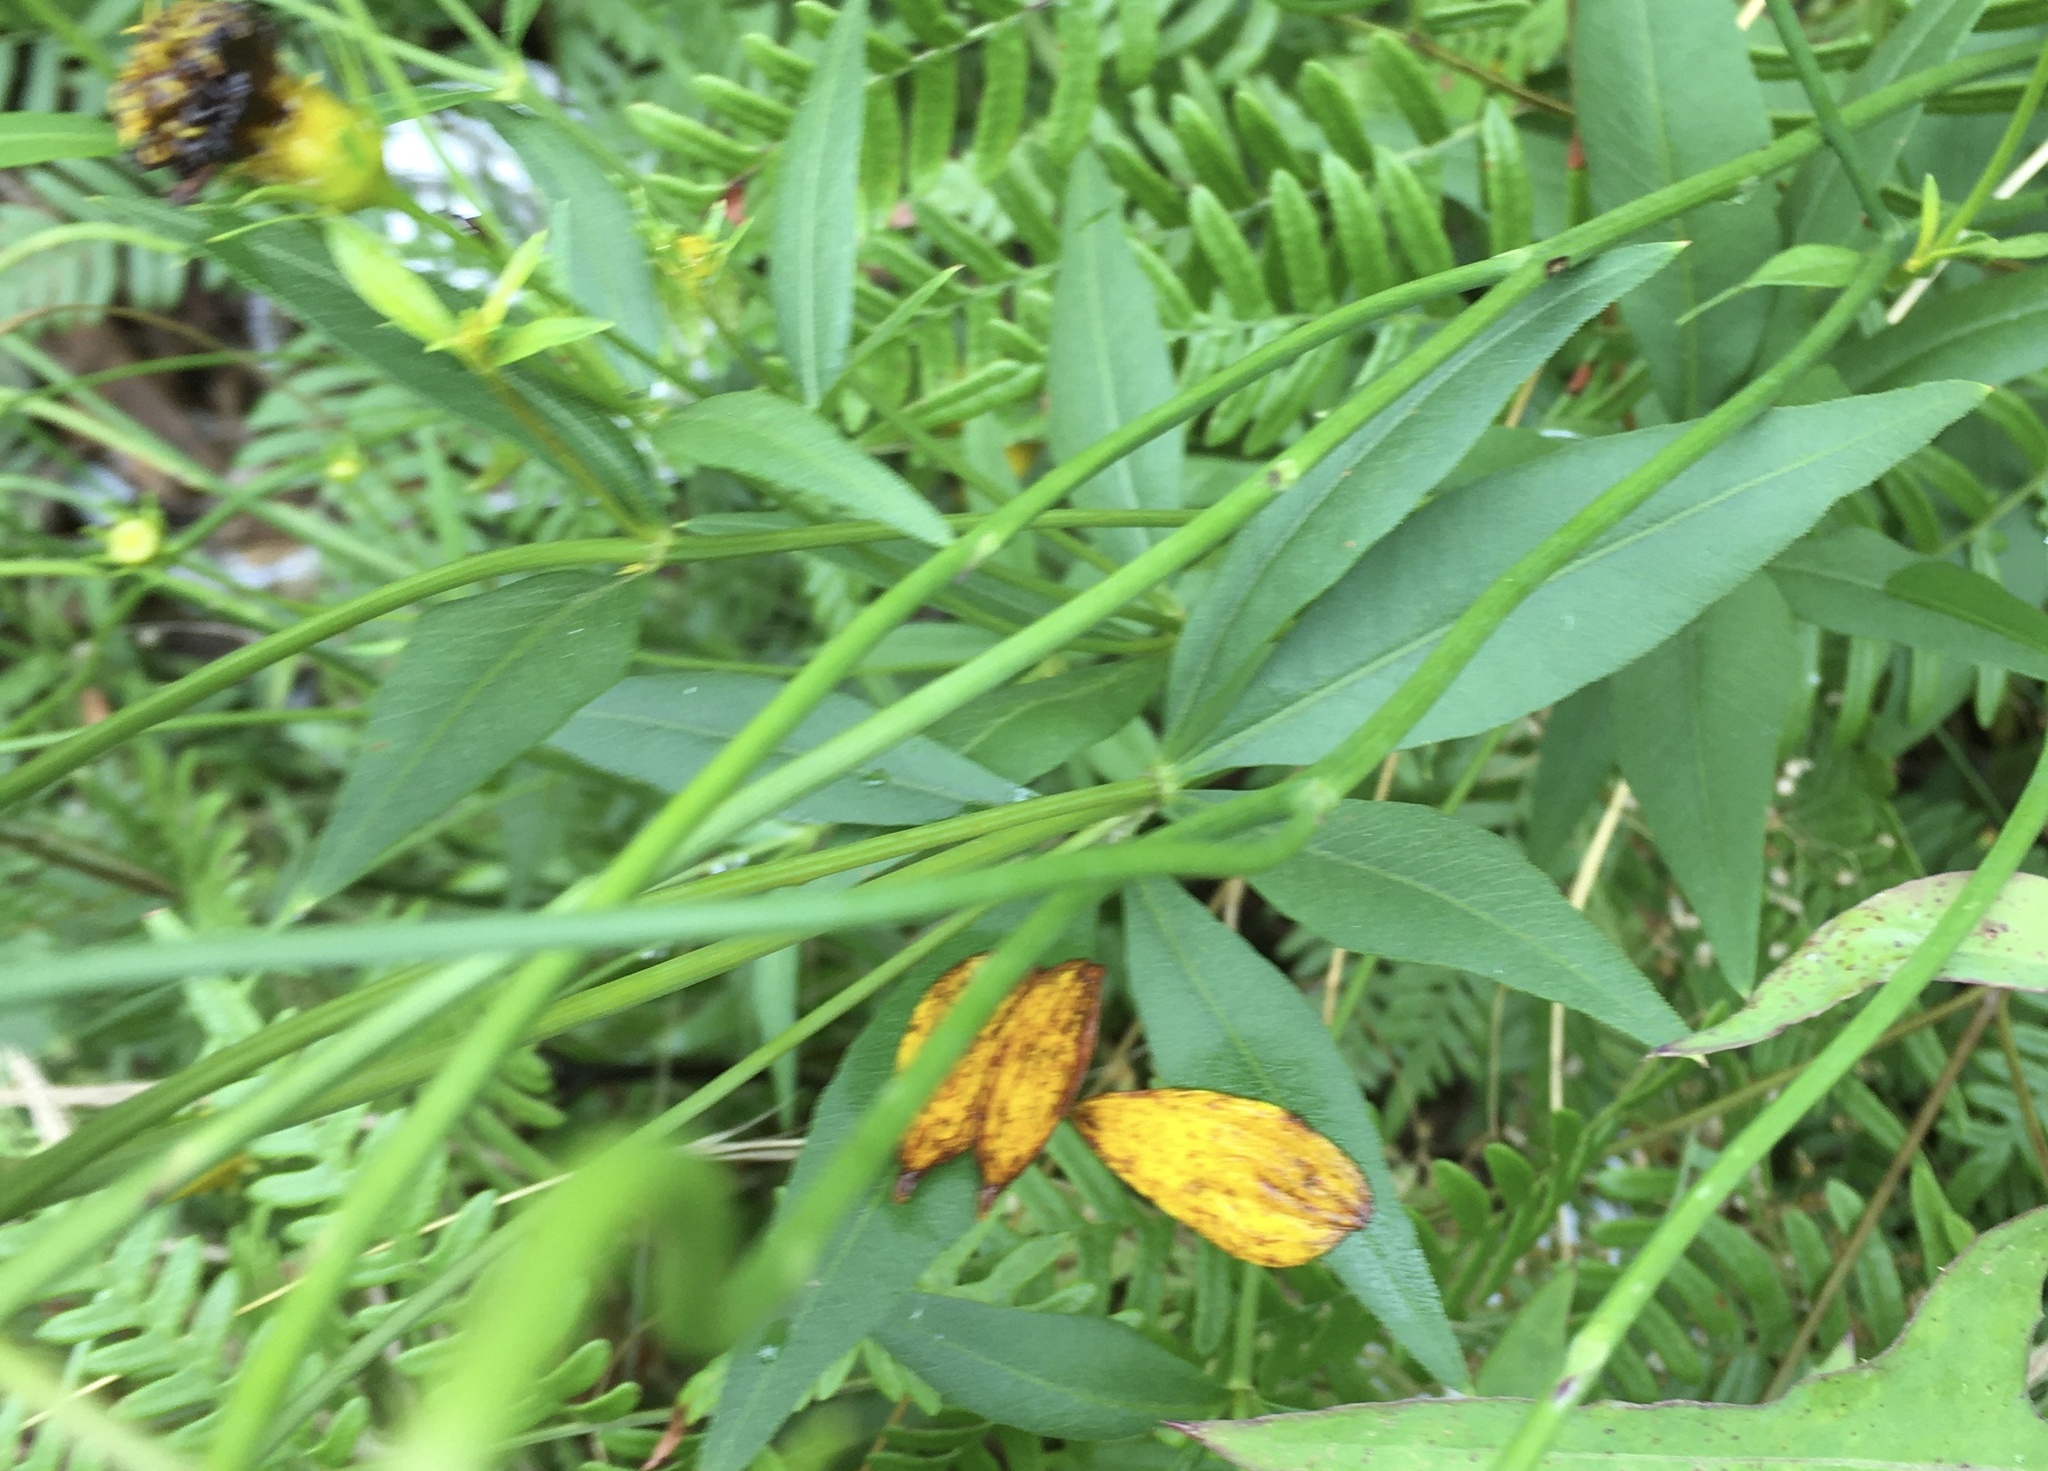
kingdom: Plantae
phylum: Tracheophyta
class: Magnoliopsida
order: Asterales
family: Asteraceae
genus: Coreopsis
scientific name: Coreopsis major
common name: Forest tickseed
